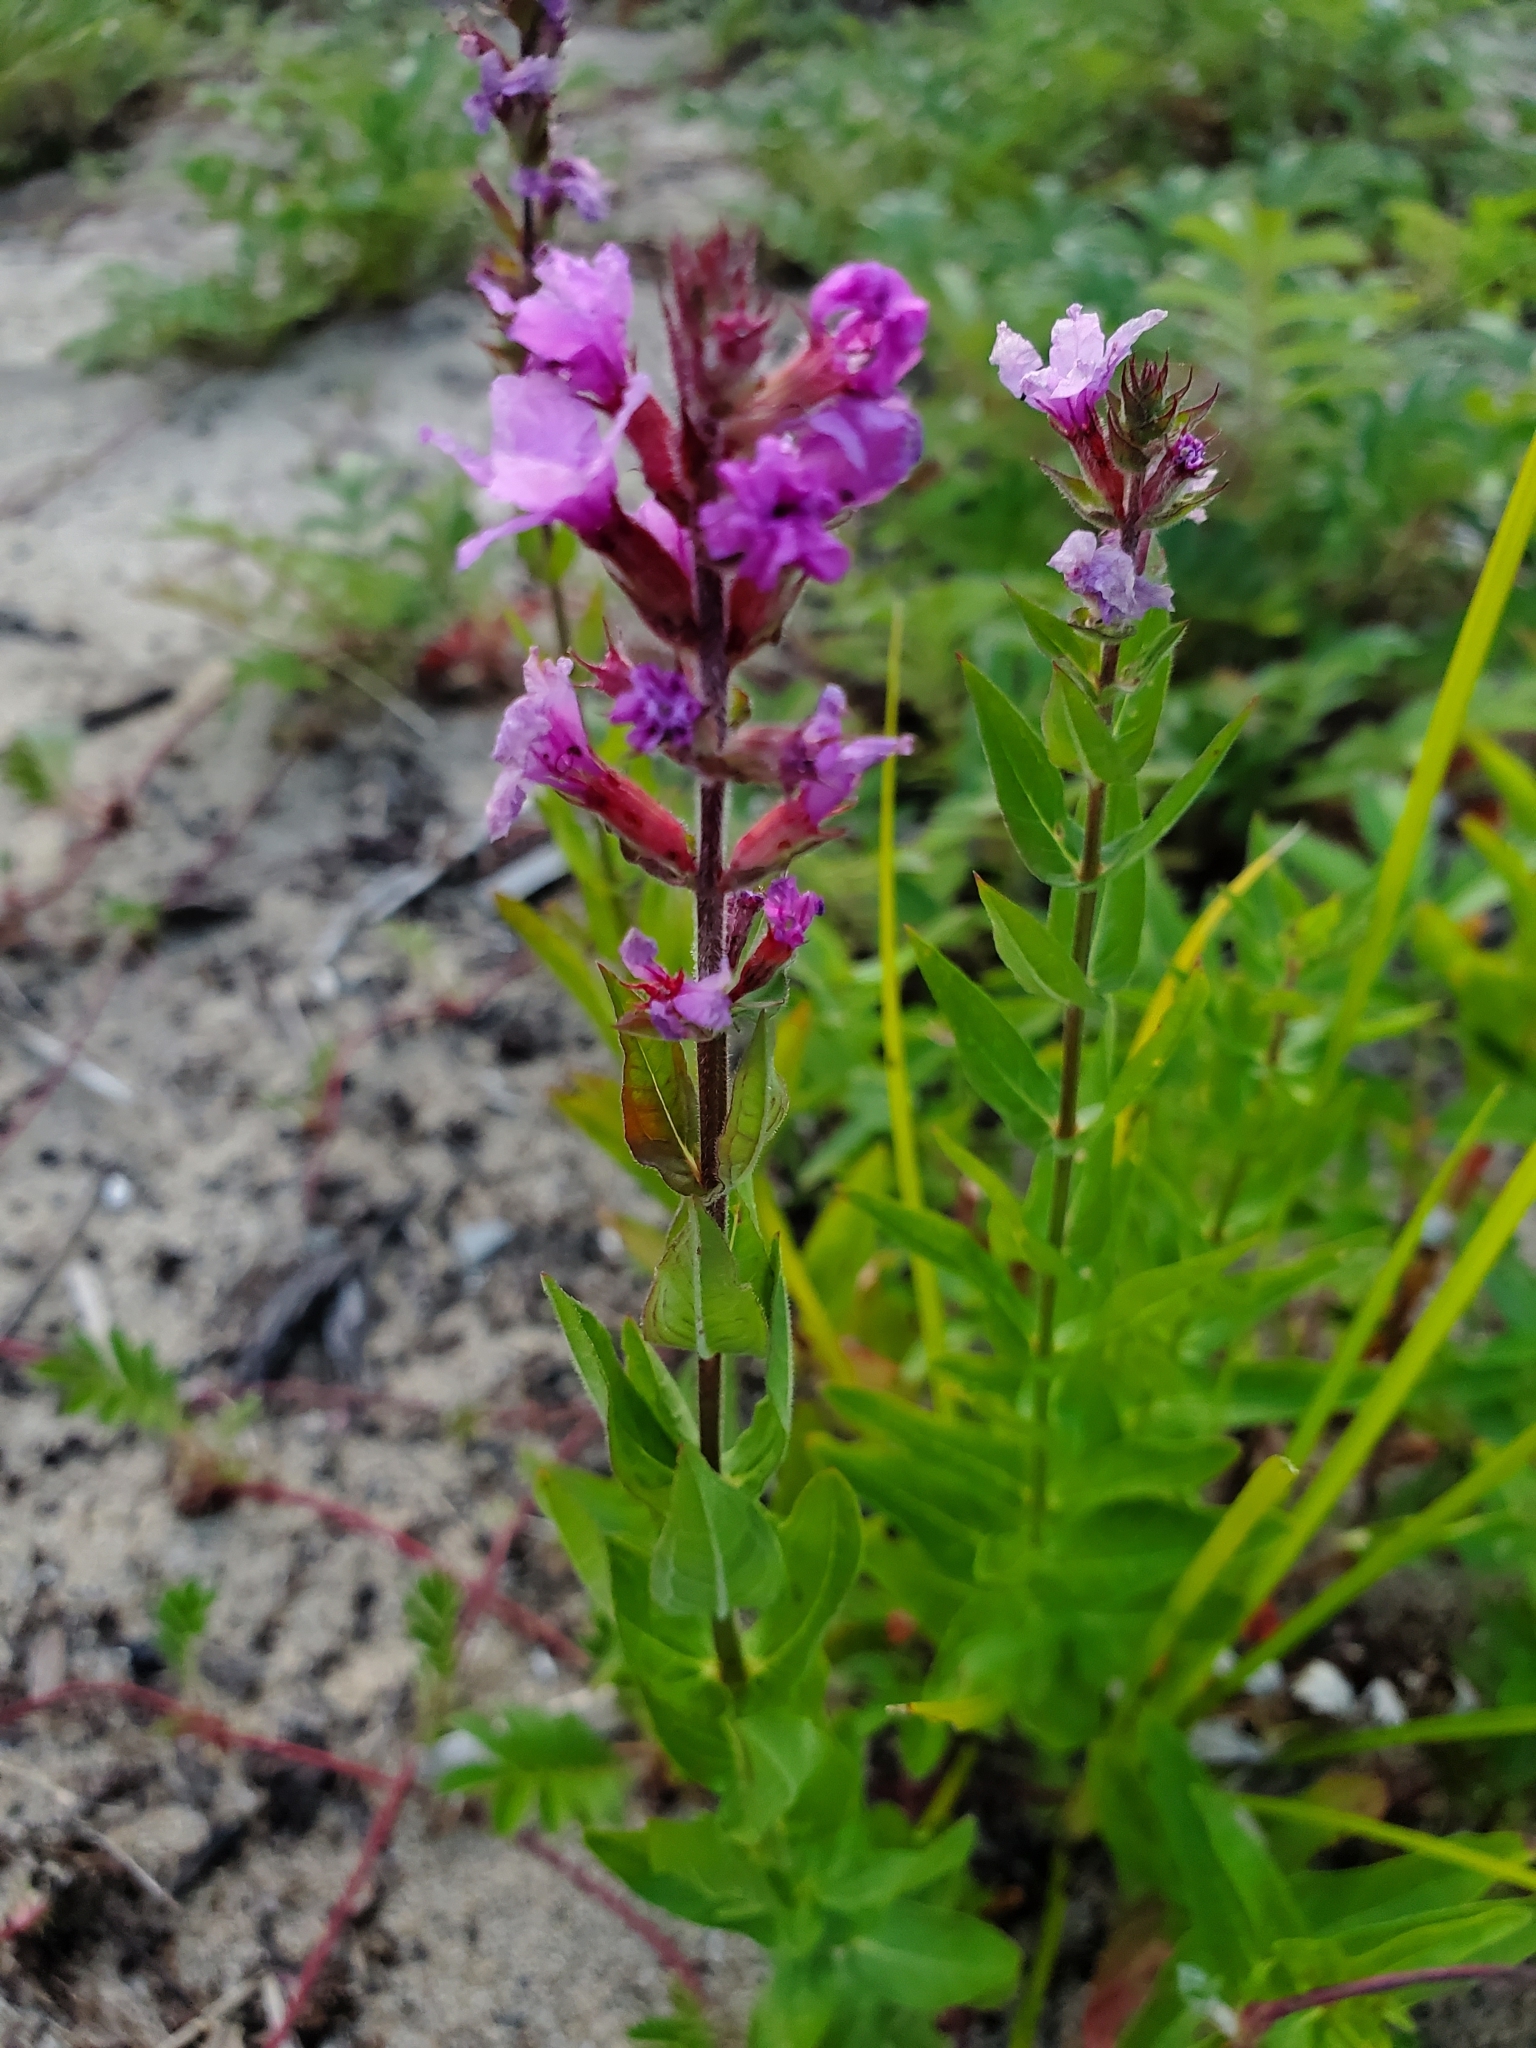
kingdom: Plantae
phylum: Tracheophyta
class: Magnoliopsida
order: Myrtales
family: Lythraceae
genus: Lythrum
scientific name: Lythrum salicaria
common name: Purple loosestrife
